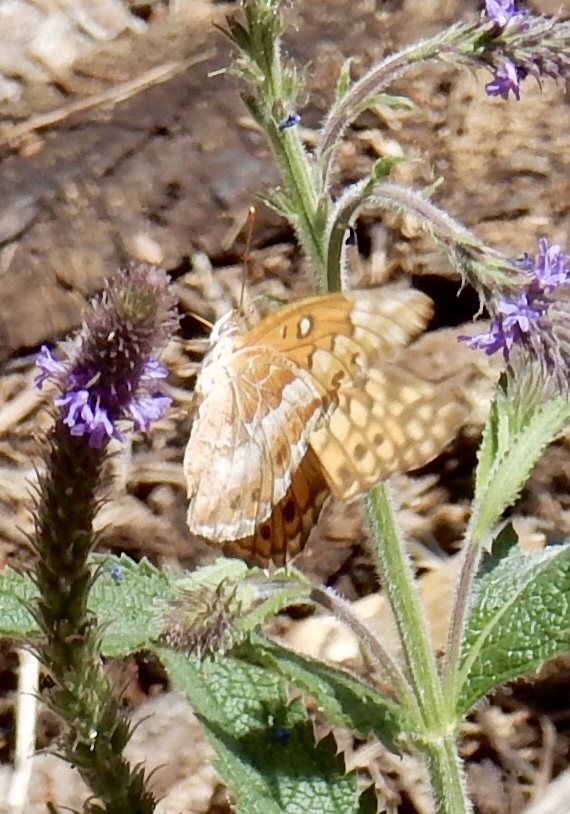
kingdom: Animalia
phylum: Arthropoda
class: Insecta
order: Lepidoptera
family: Nymphalidae
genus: Euptoieta
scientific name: Euptoieta claudia
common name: Variegated fritillary
